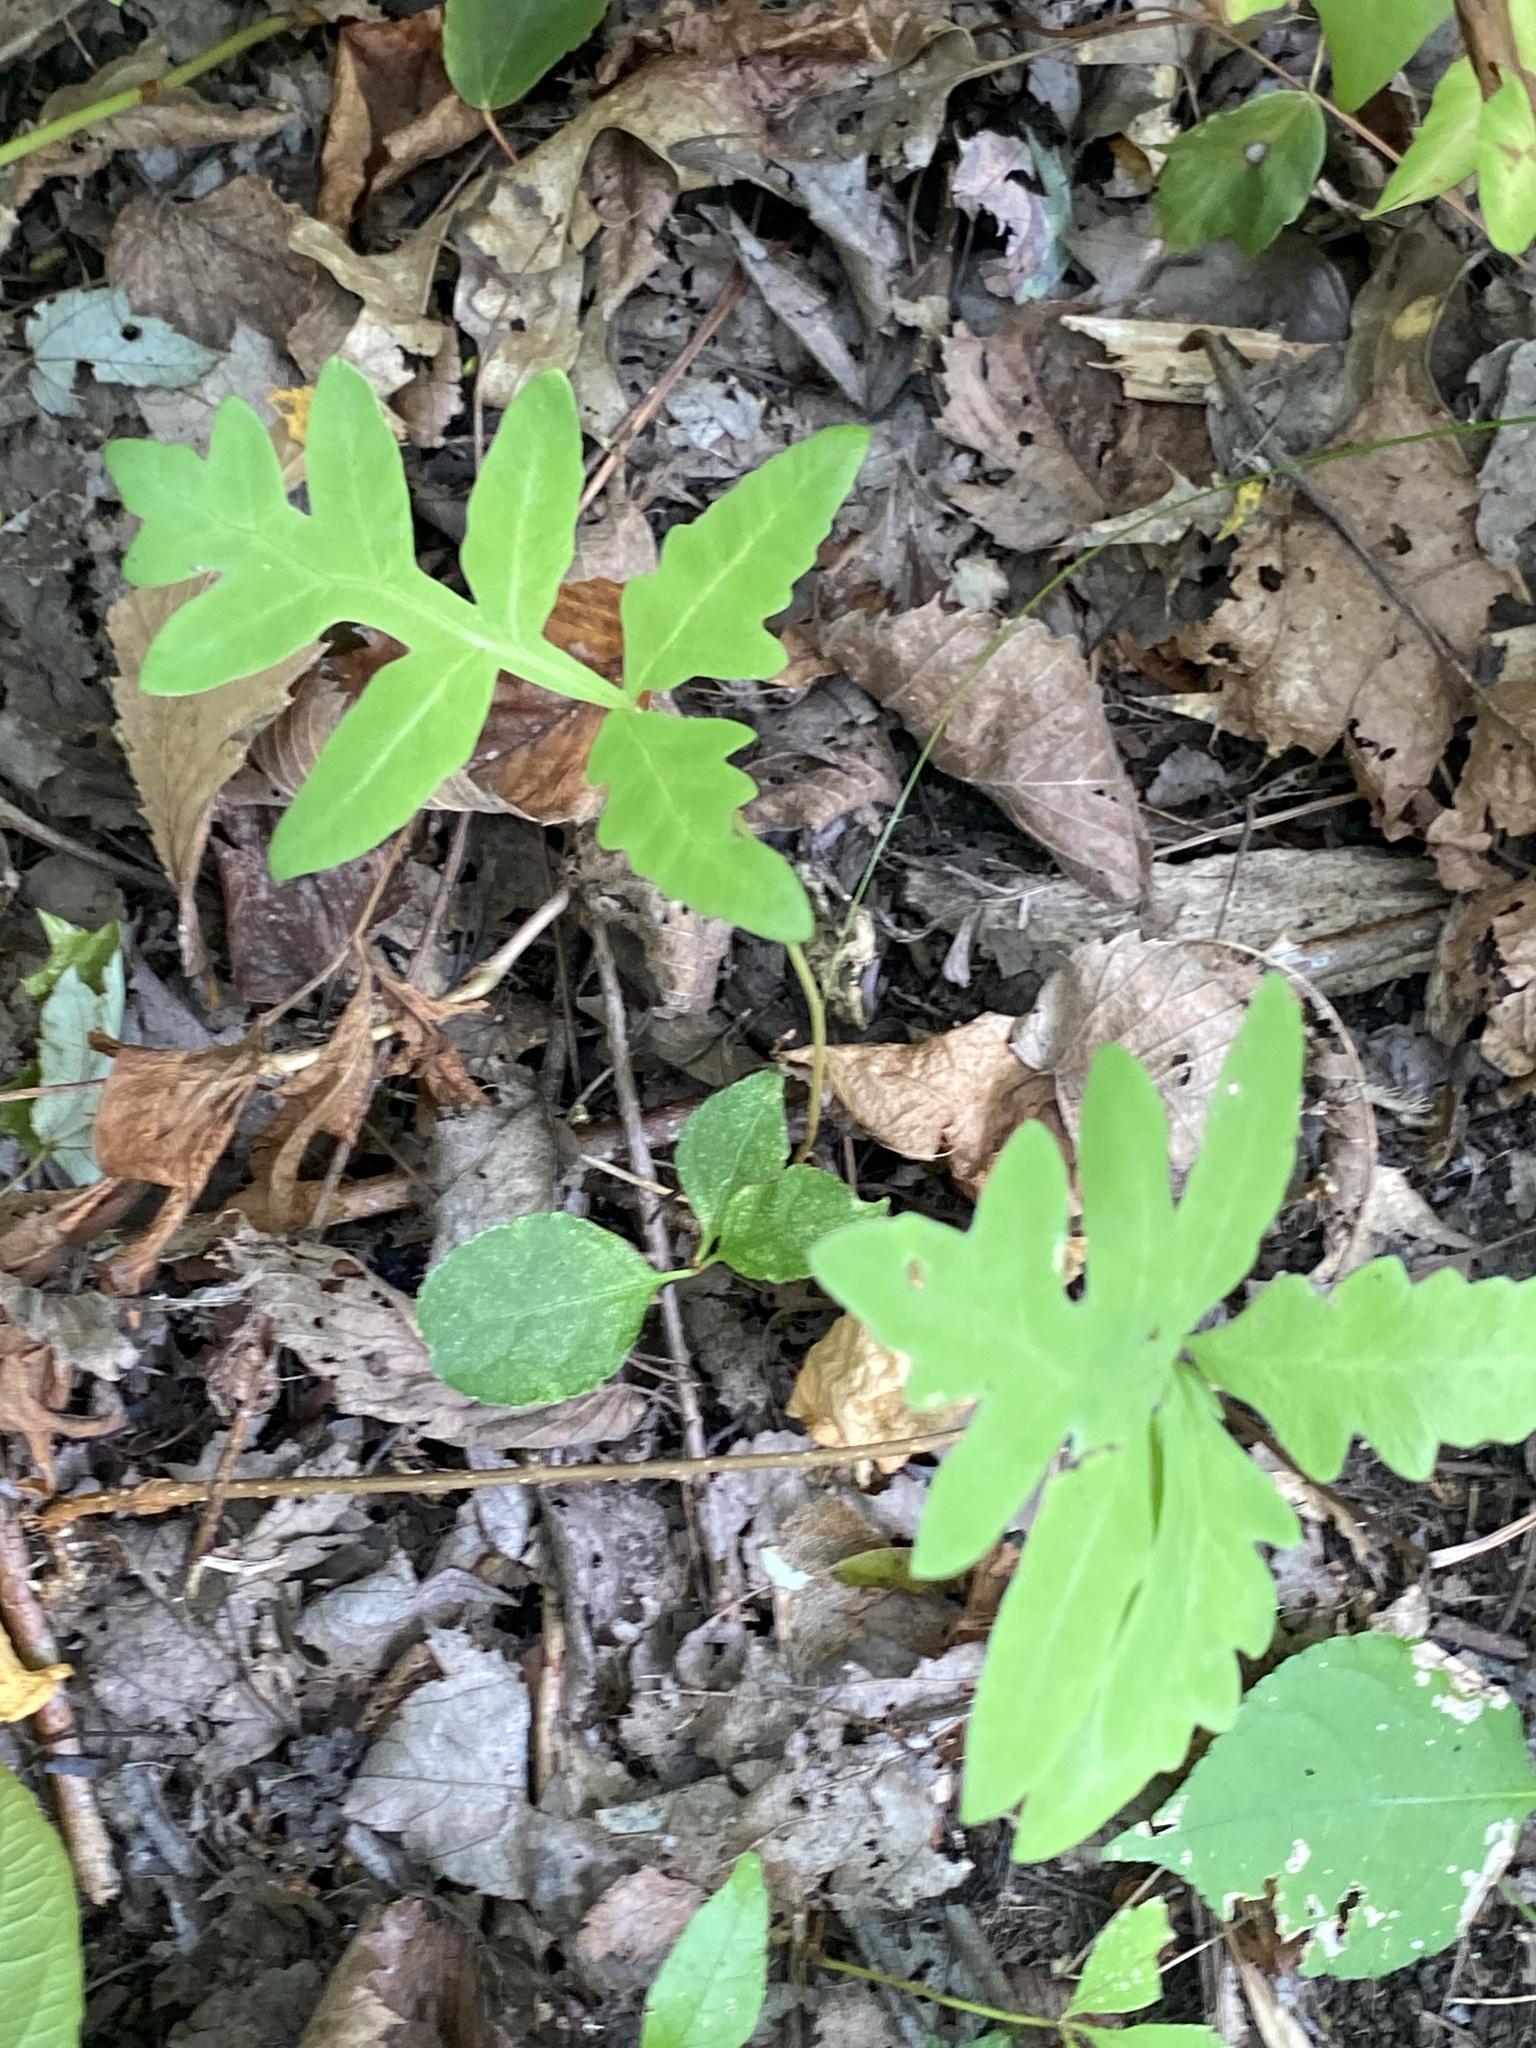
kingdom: Plantae
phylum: Tracheophyta
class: Polypodiopsida
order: Polypodiales
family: Onocleaceae
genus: Onoclea
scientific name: Onoclea sensibilis
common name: Sensitive fern
